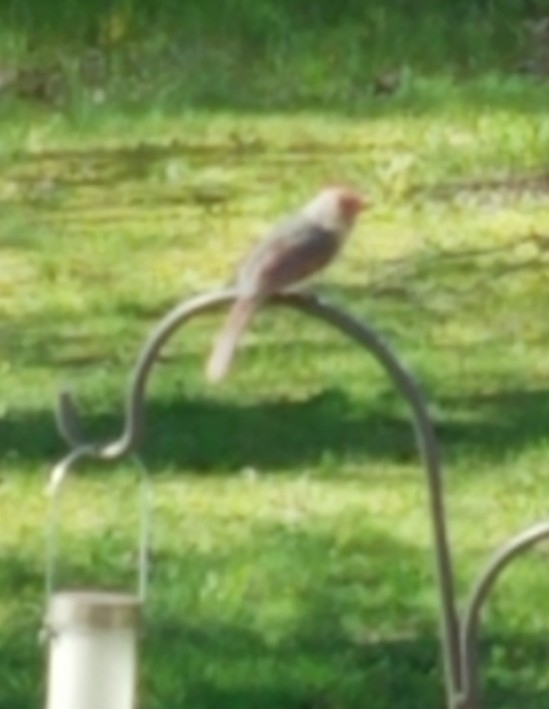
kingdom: Animalia
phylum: Chordata
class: Aves
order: Passeriformes
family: Cardinalidae
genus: Cardinalis
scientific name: Cardinalis cardinalis
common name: Northern cardinal
